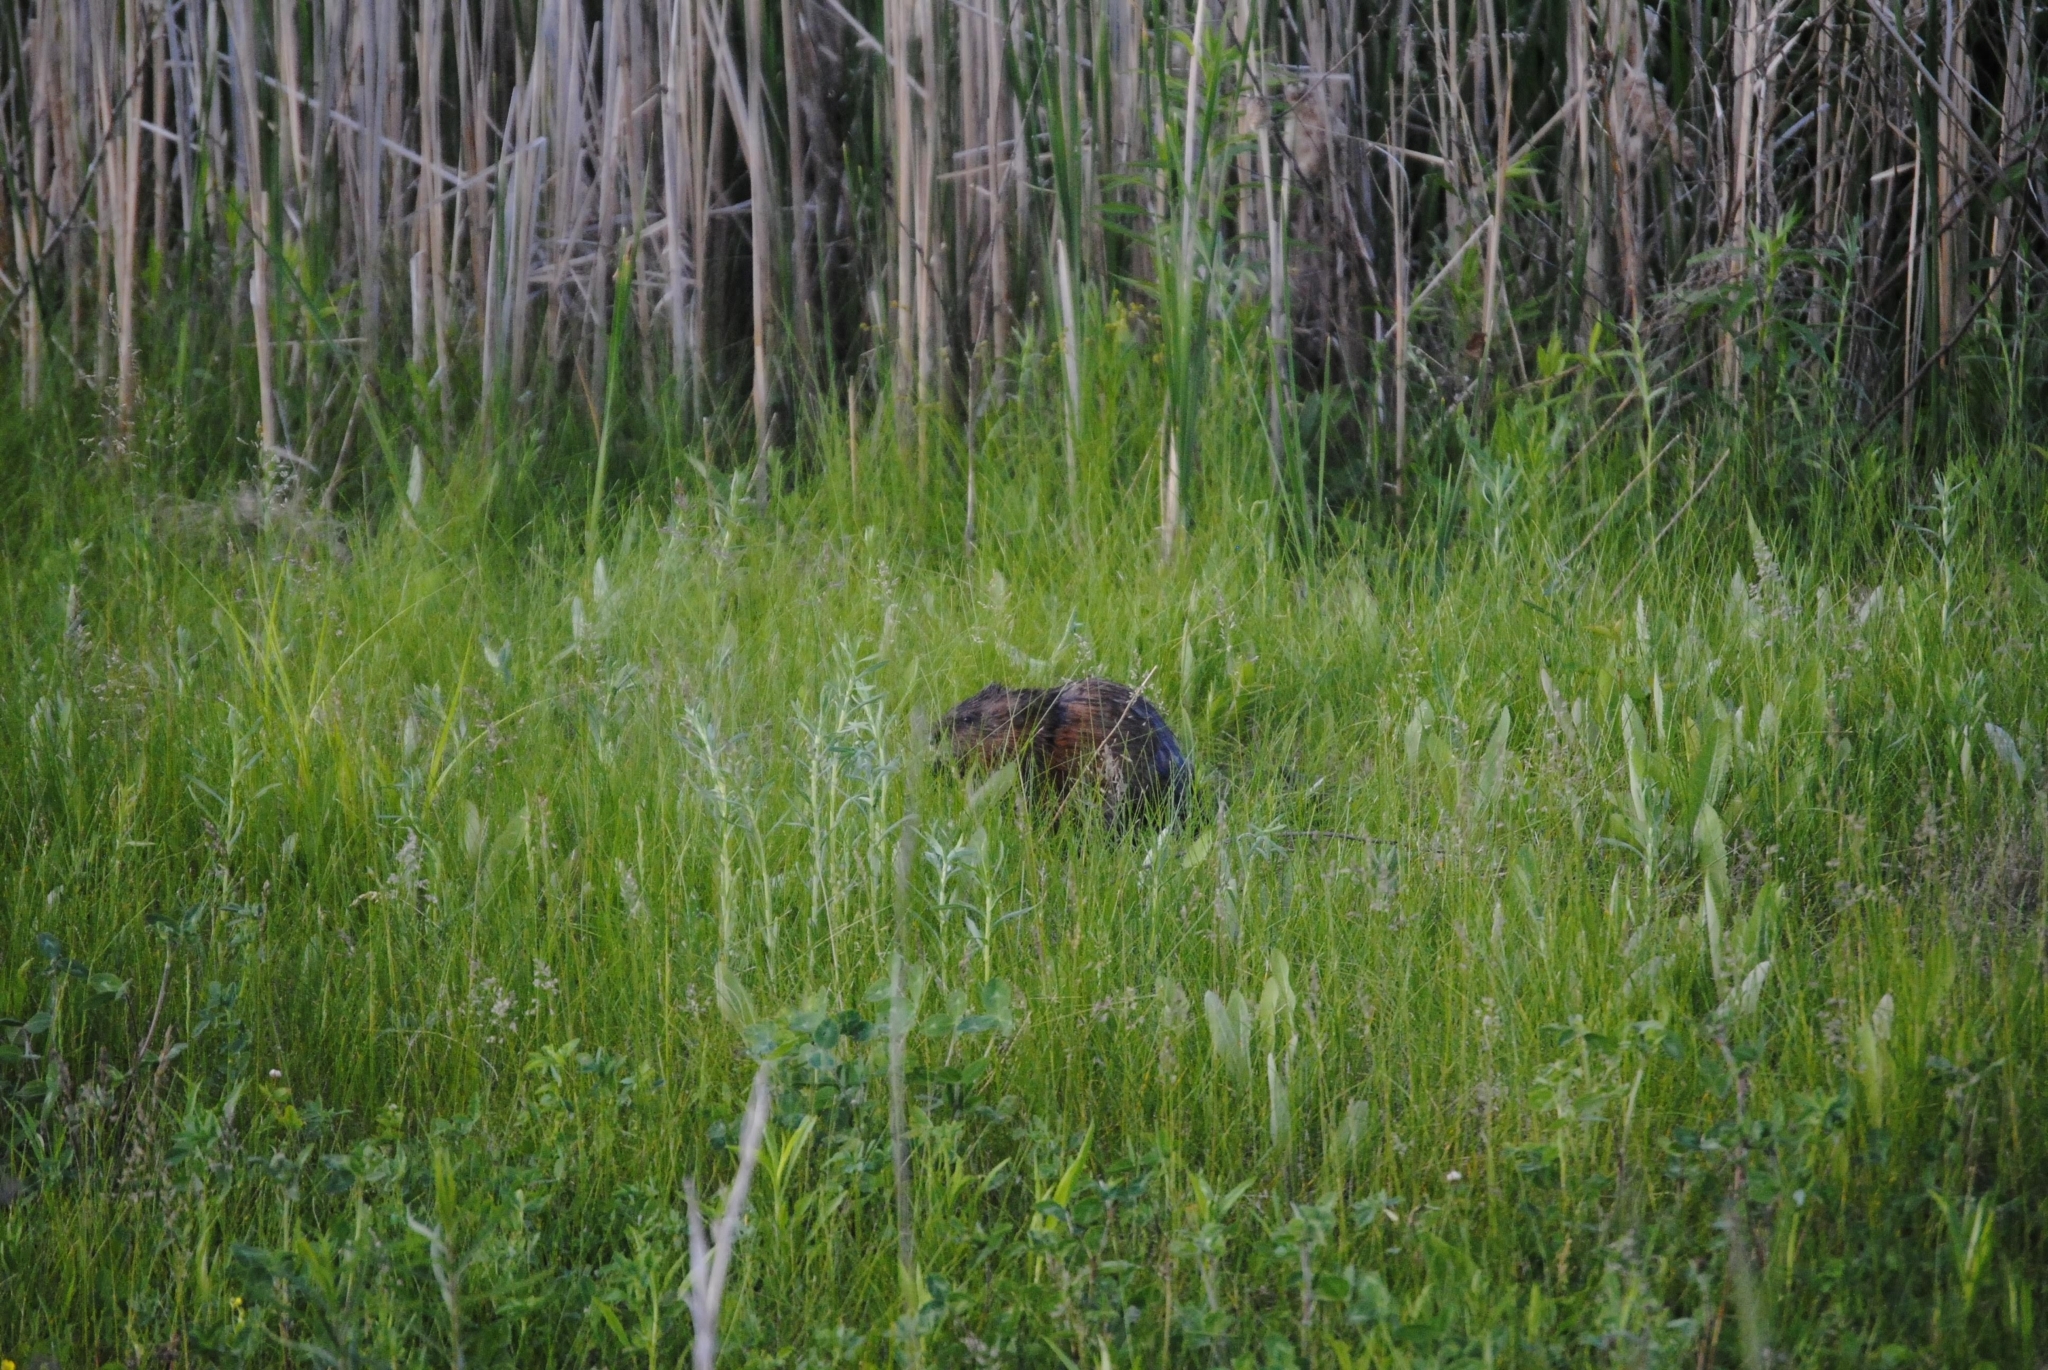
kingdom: Animalia
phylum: Chordata
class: Mammalia
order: Rodentia
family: Cricetidae
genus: Ondatra
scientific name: Ondatra zibethicus
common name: Muskrat
